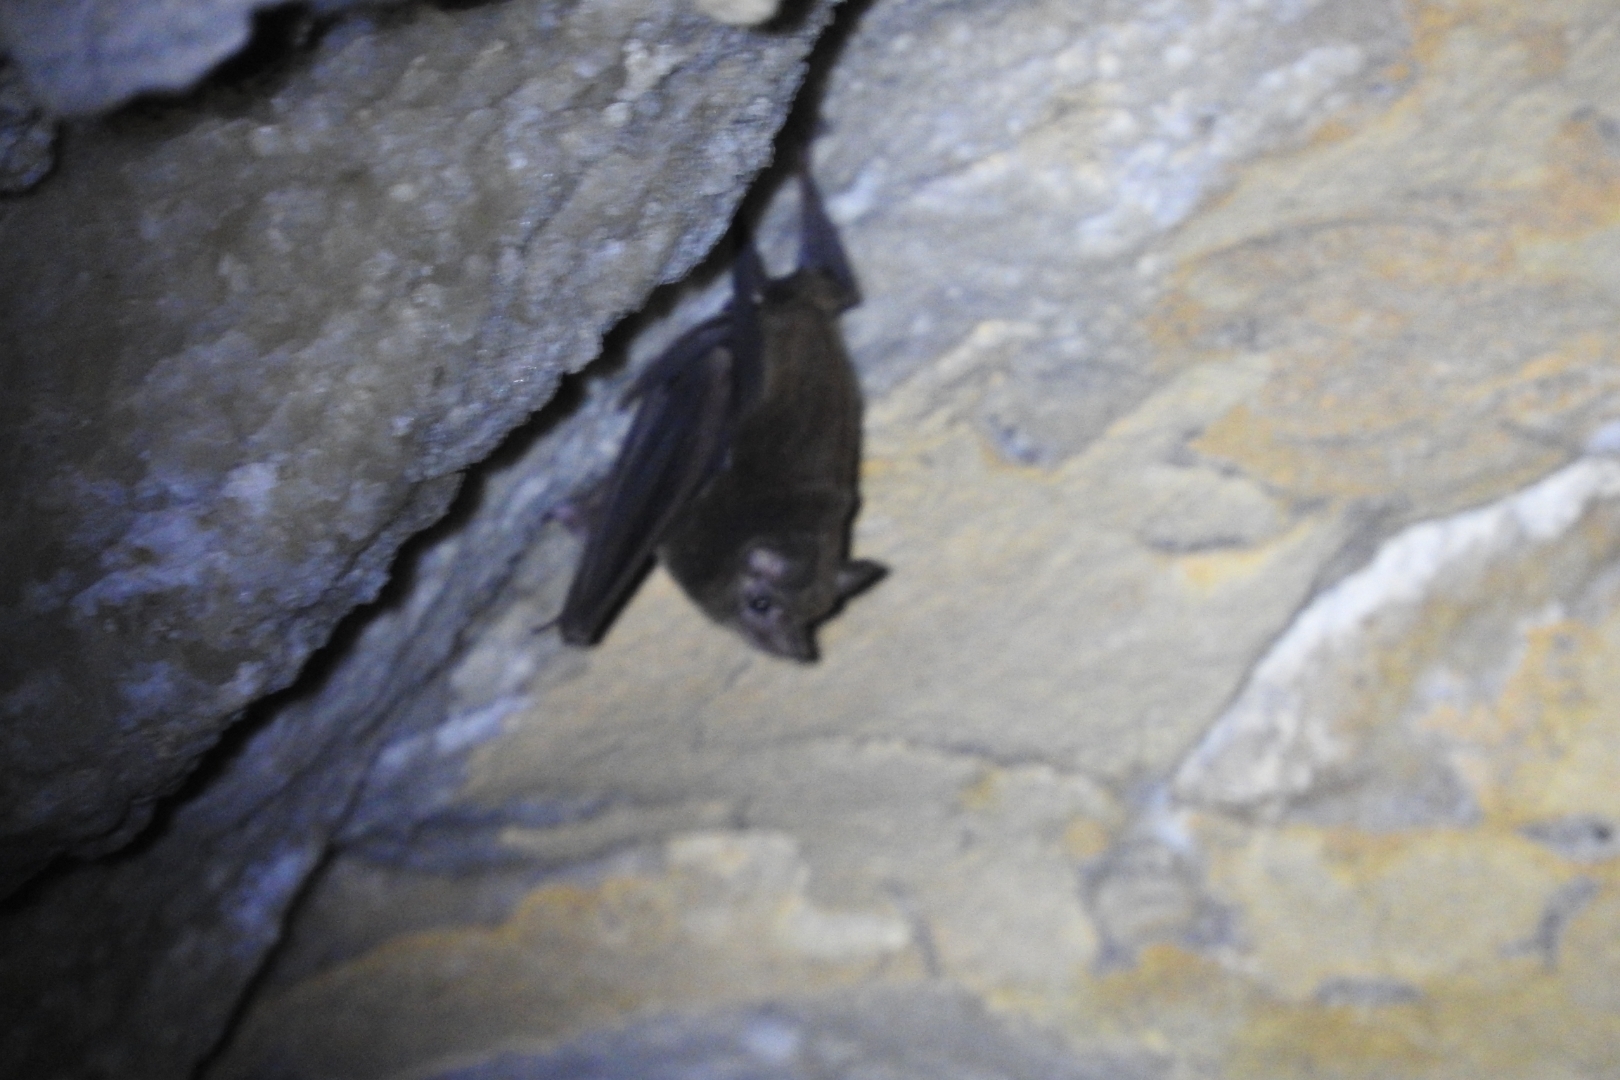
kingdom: Animalia
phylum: Chordata
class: Mammalia
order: Chiroptera
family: Emballonuridae
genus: Peropteryx
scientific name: Peropteryx macrotis
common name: Lesser dog-like bat
